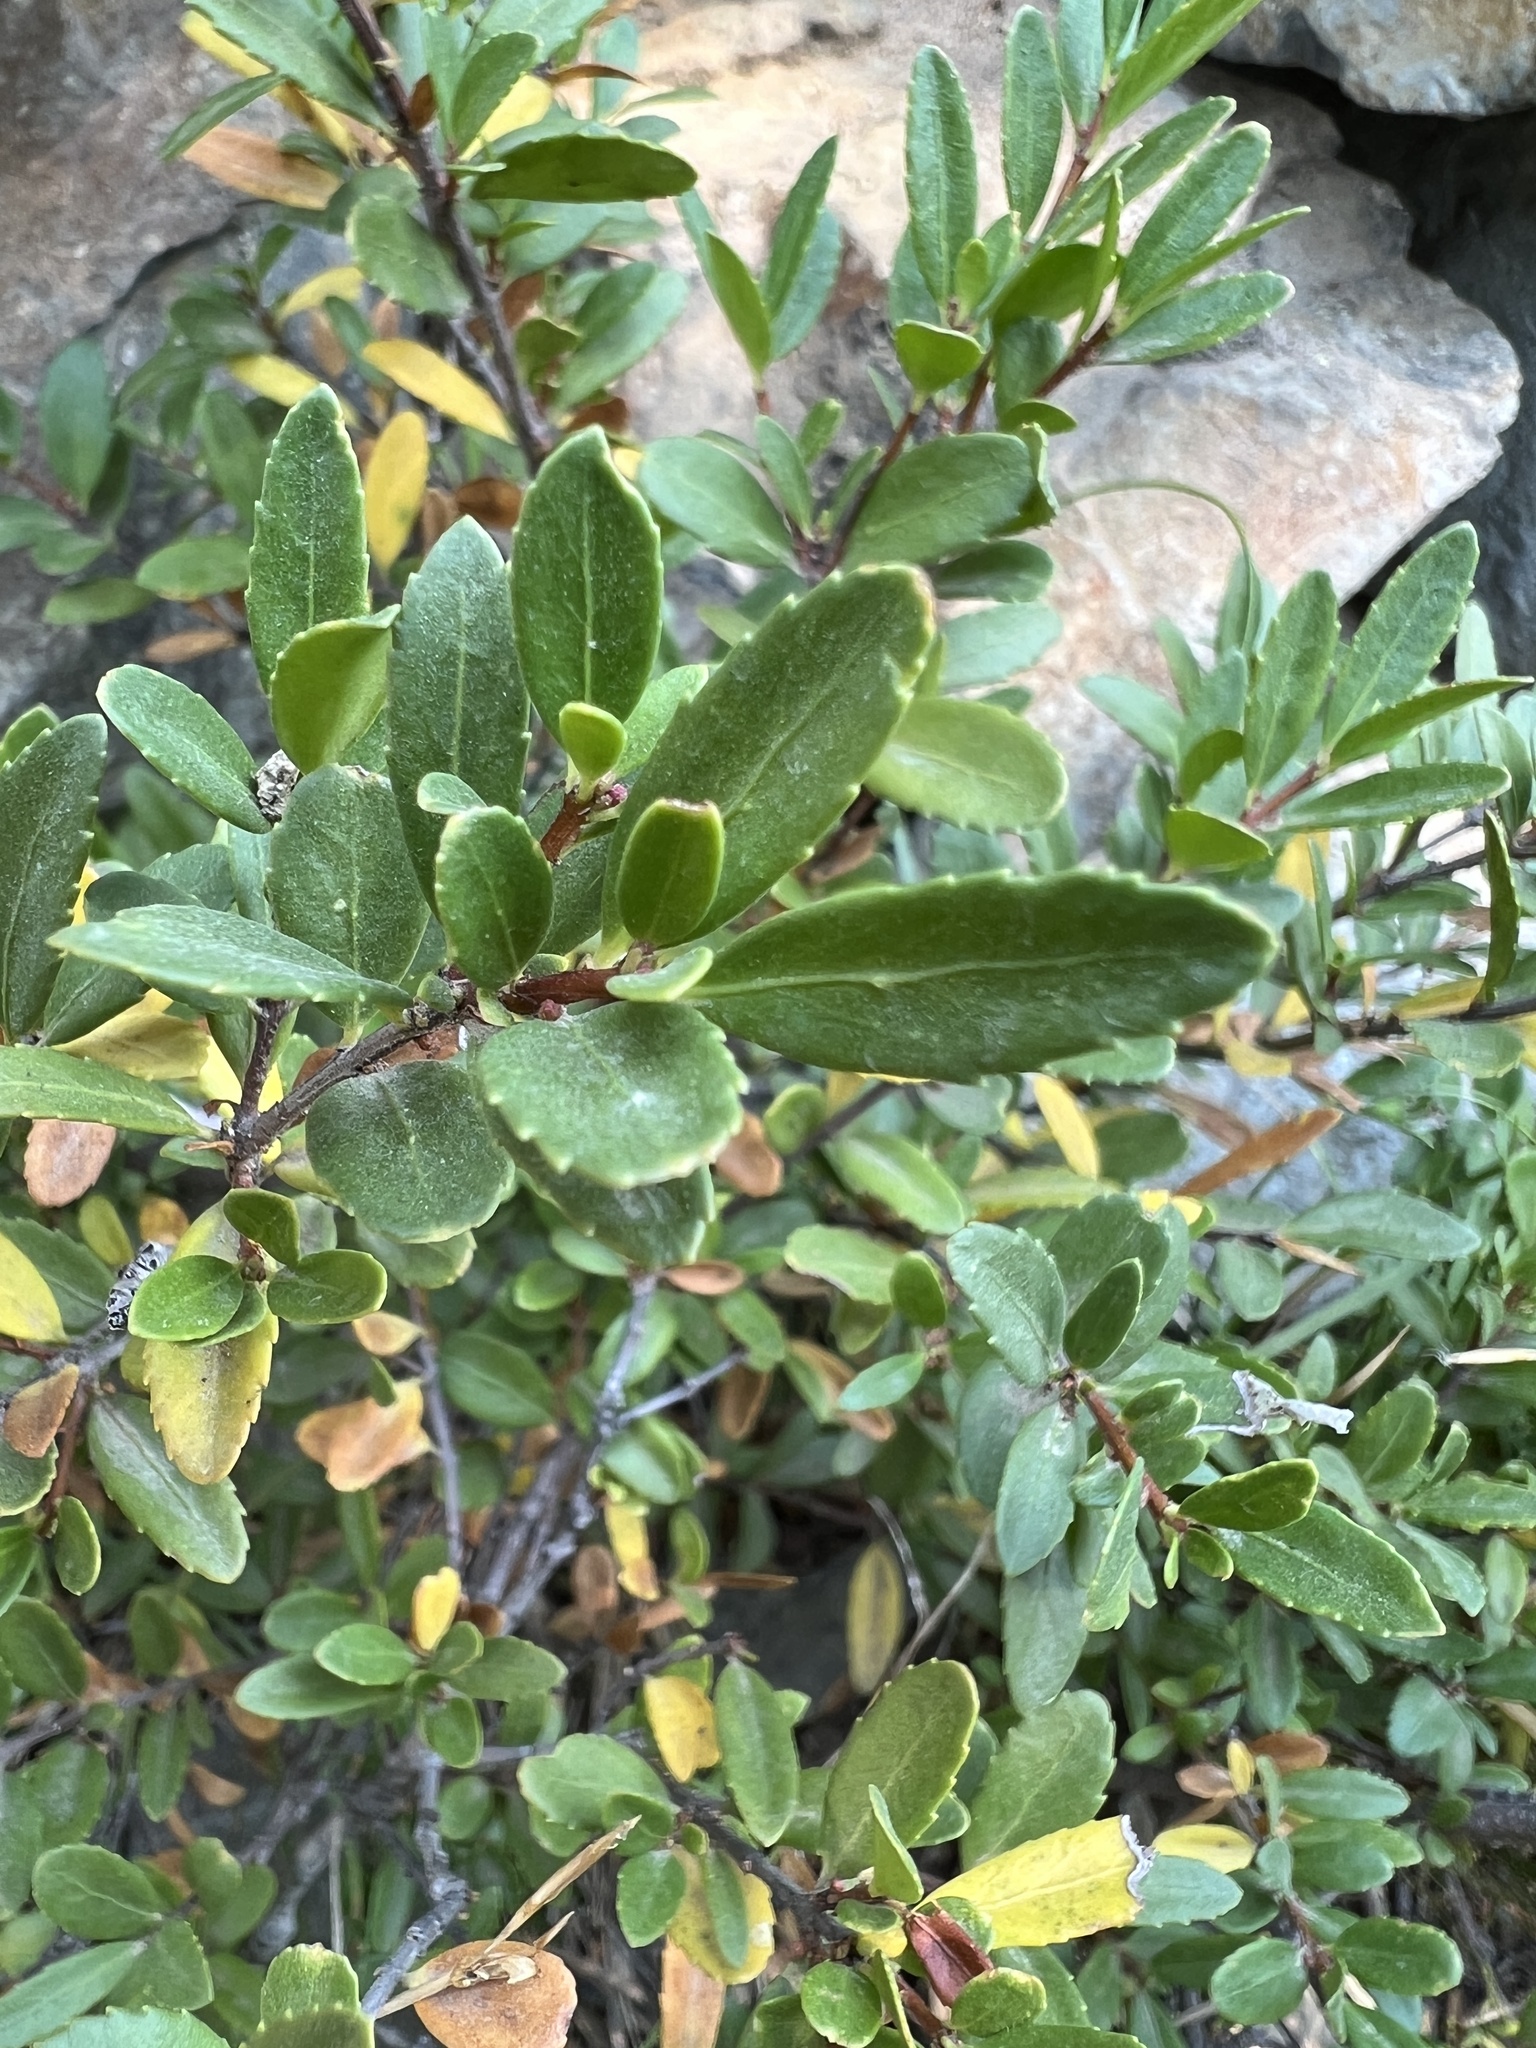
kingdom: Plantae
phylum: Tracheophyta
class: Magnoliopsida
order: Celastrales
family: Celastraceae
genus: Paxistima
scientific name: Paxistima myrsinites
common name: Mountain-lover
